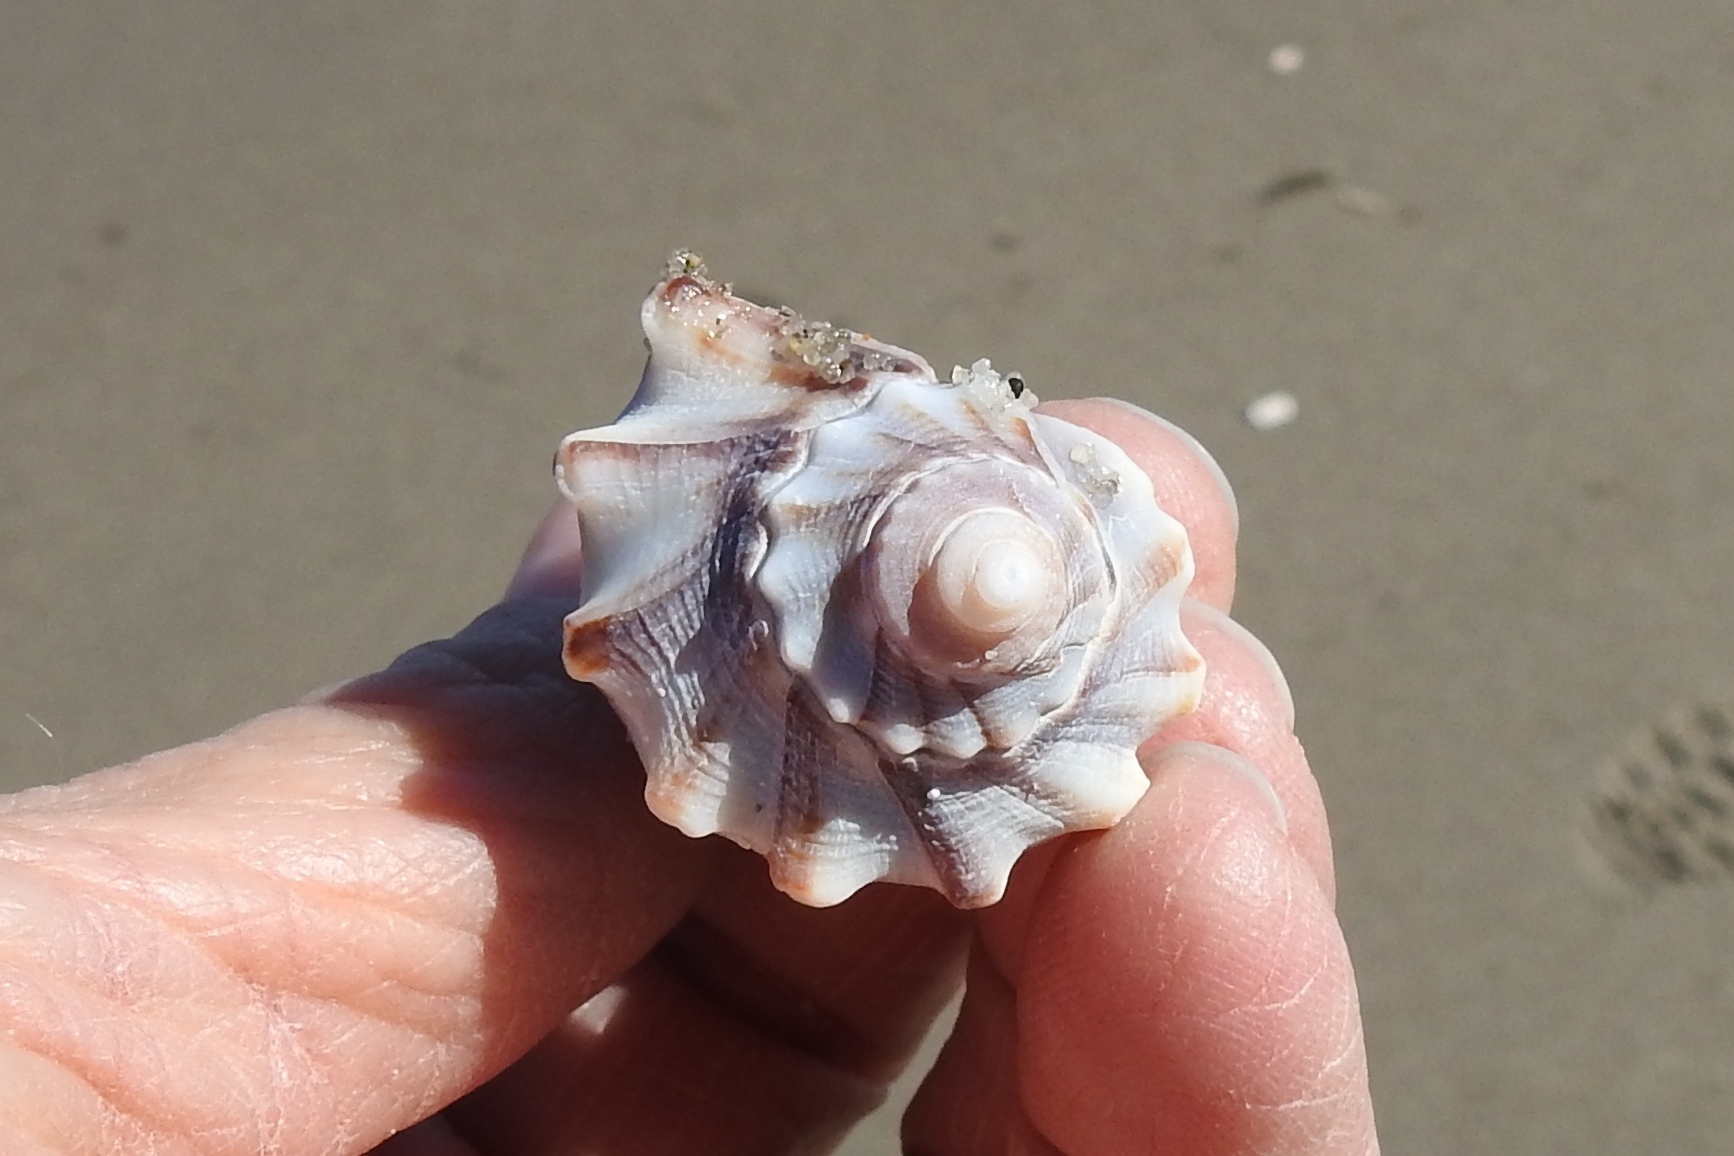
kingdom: Animalia
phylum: Mollusca
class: Gastropoda
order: Neogastropoda
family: Busyconidae
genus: Busycon
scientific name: Busycon carica
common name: Knobbed whelk
